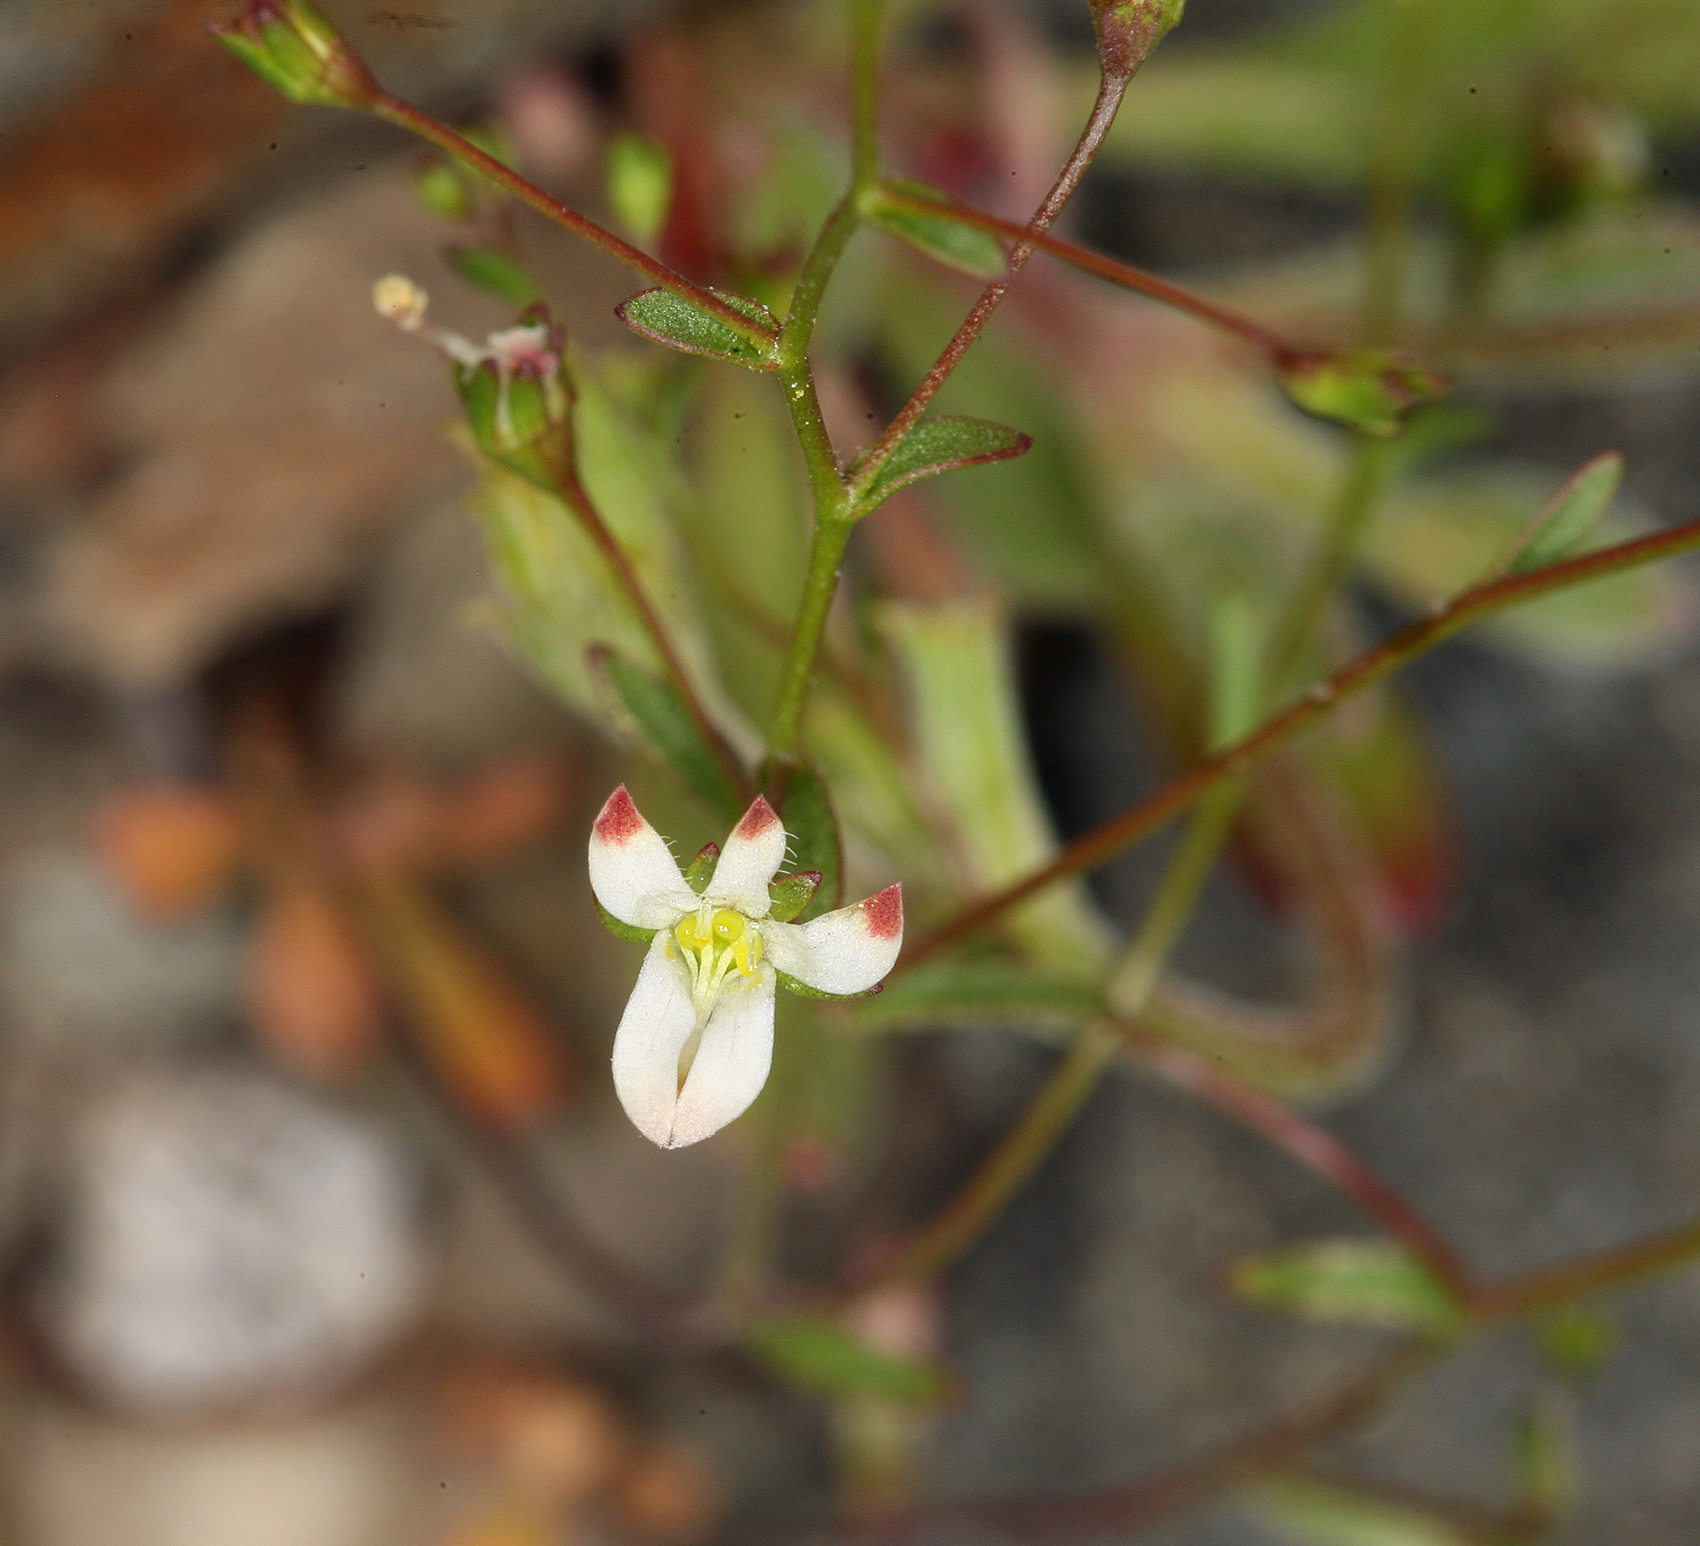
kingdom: Plantae
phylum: Tracheophyta
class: Magnoliopsida
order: Asterales
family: Campanulaceae
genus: Nemacladus
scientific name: Nemacladus orientalis
